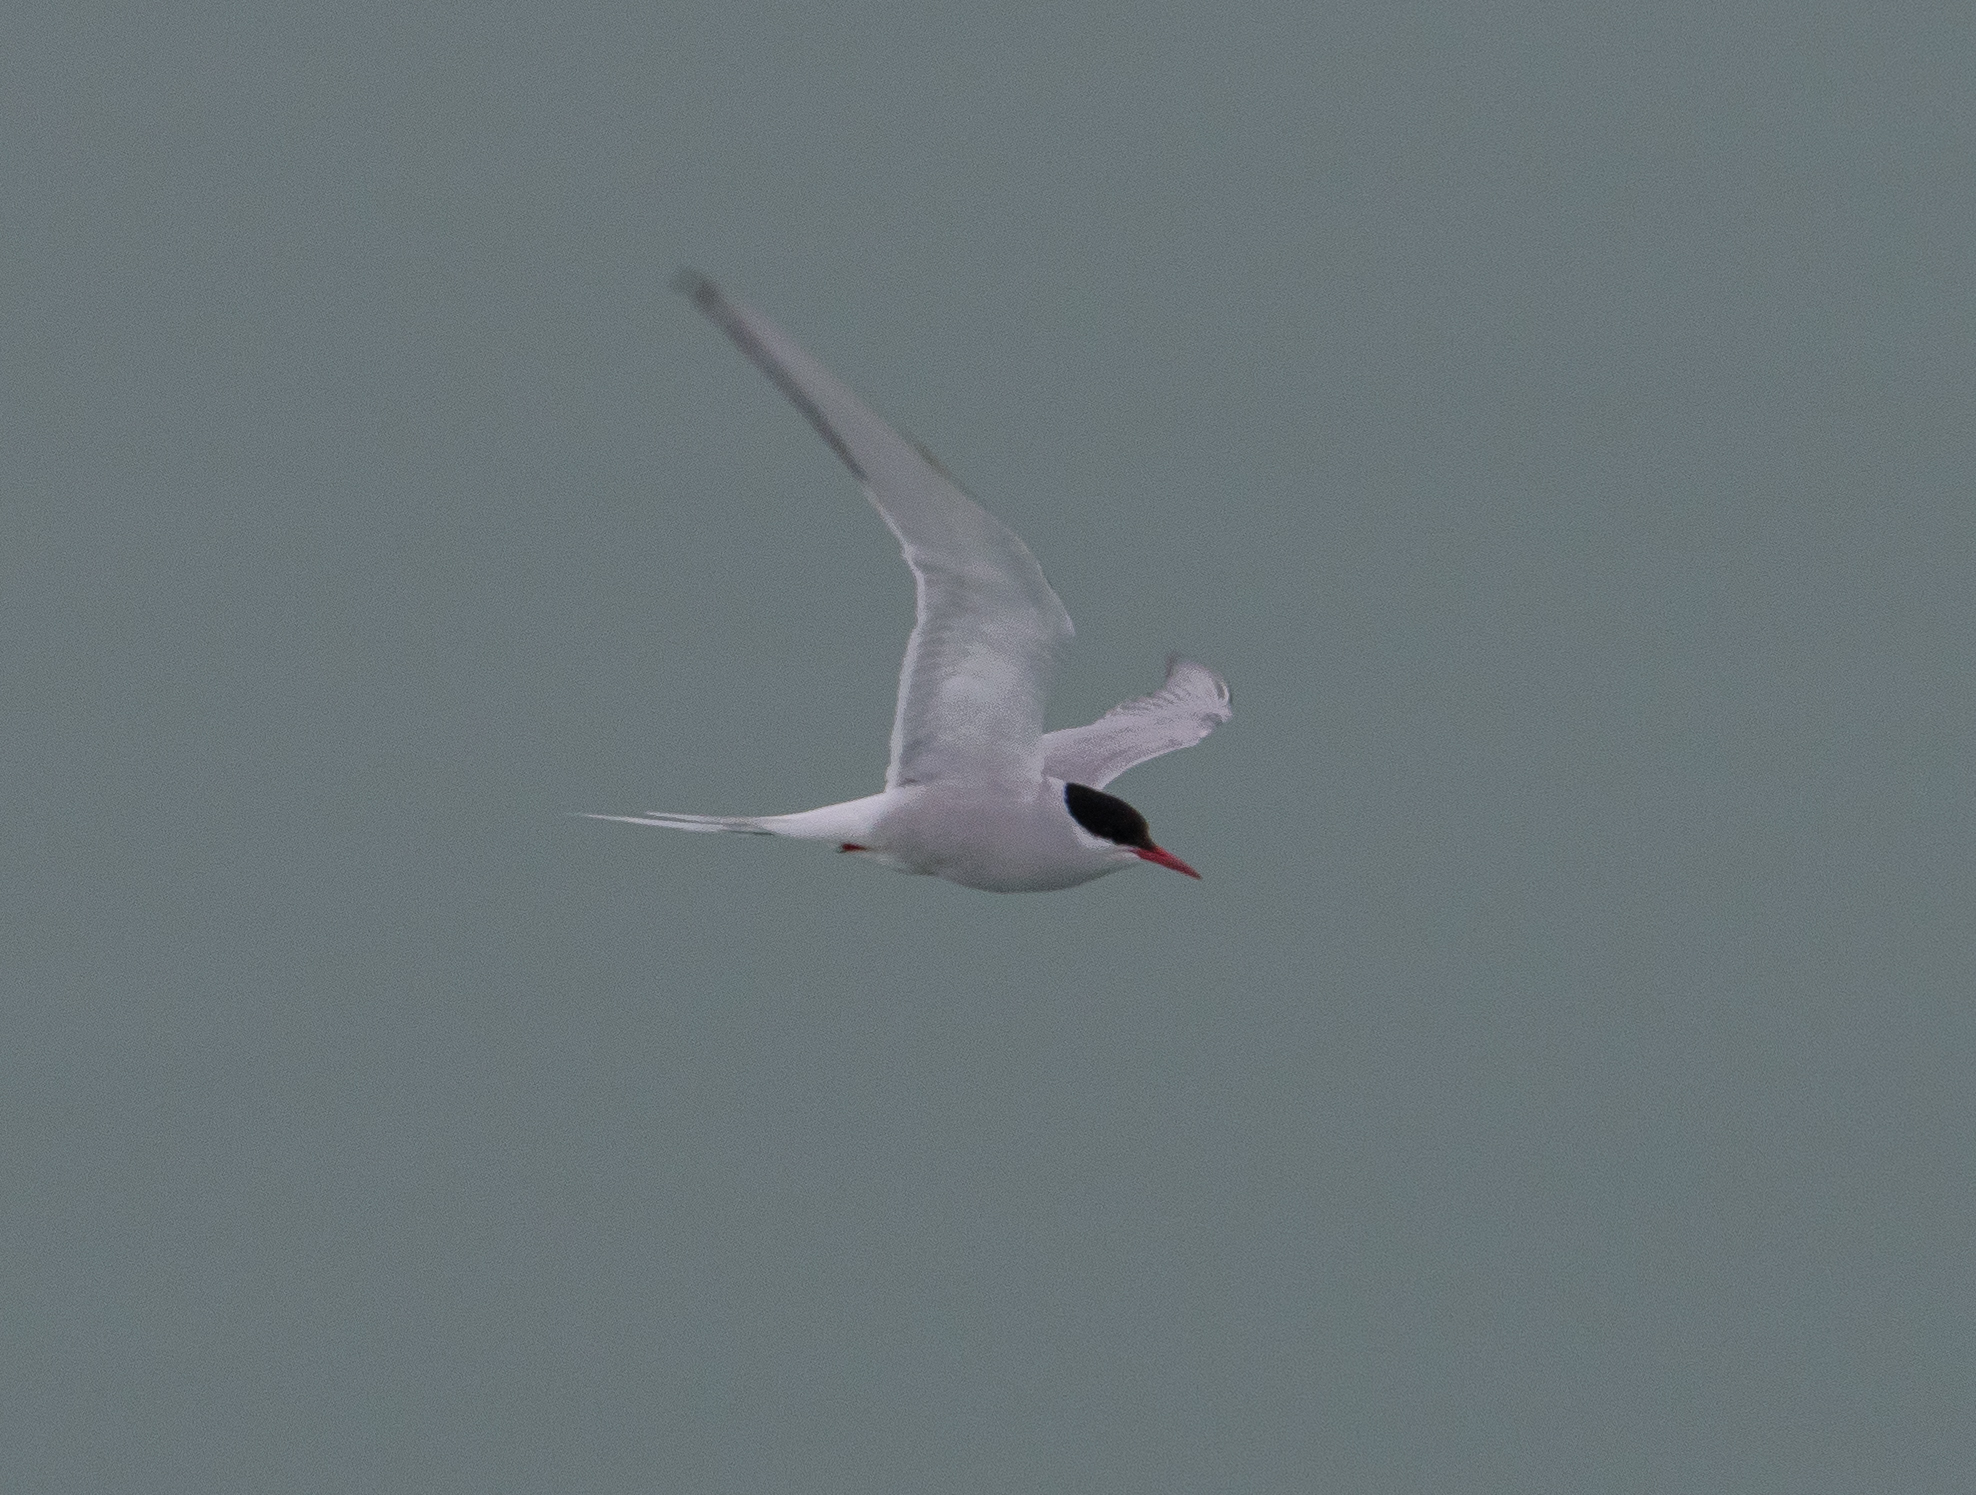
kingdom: Animalia
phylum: Chordata
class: Aves
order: Charadriiformes
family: Laridae
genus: Sterna
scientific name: Sterna paradisaea
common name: Arctic tern
